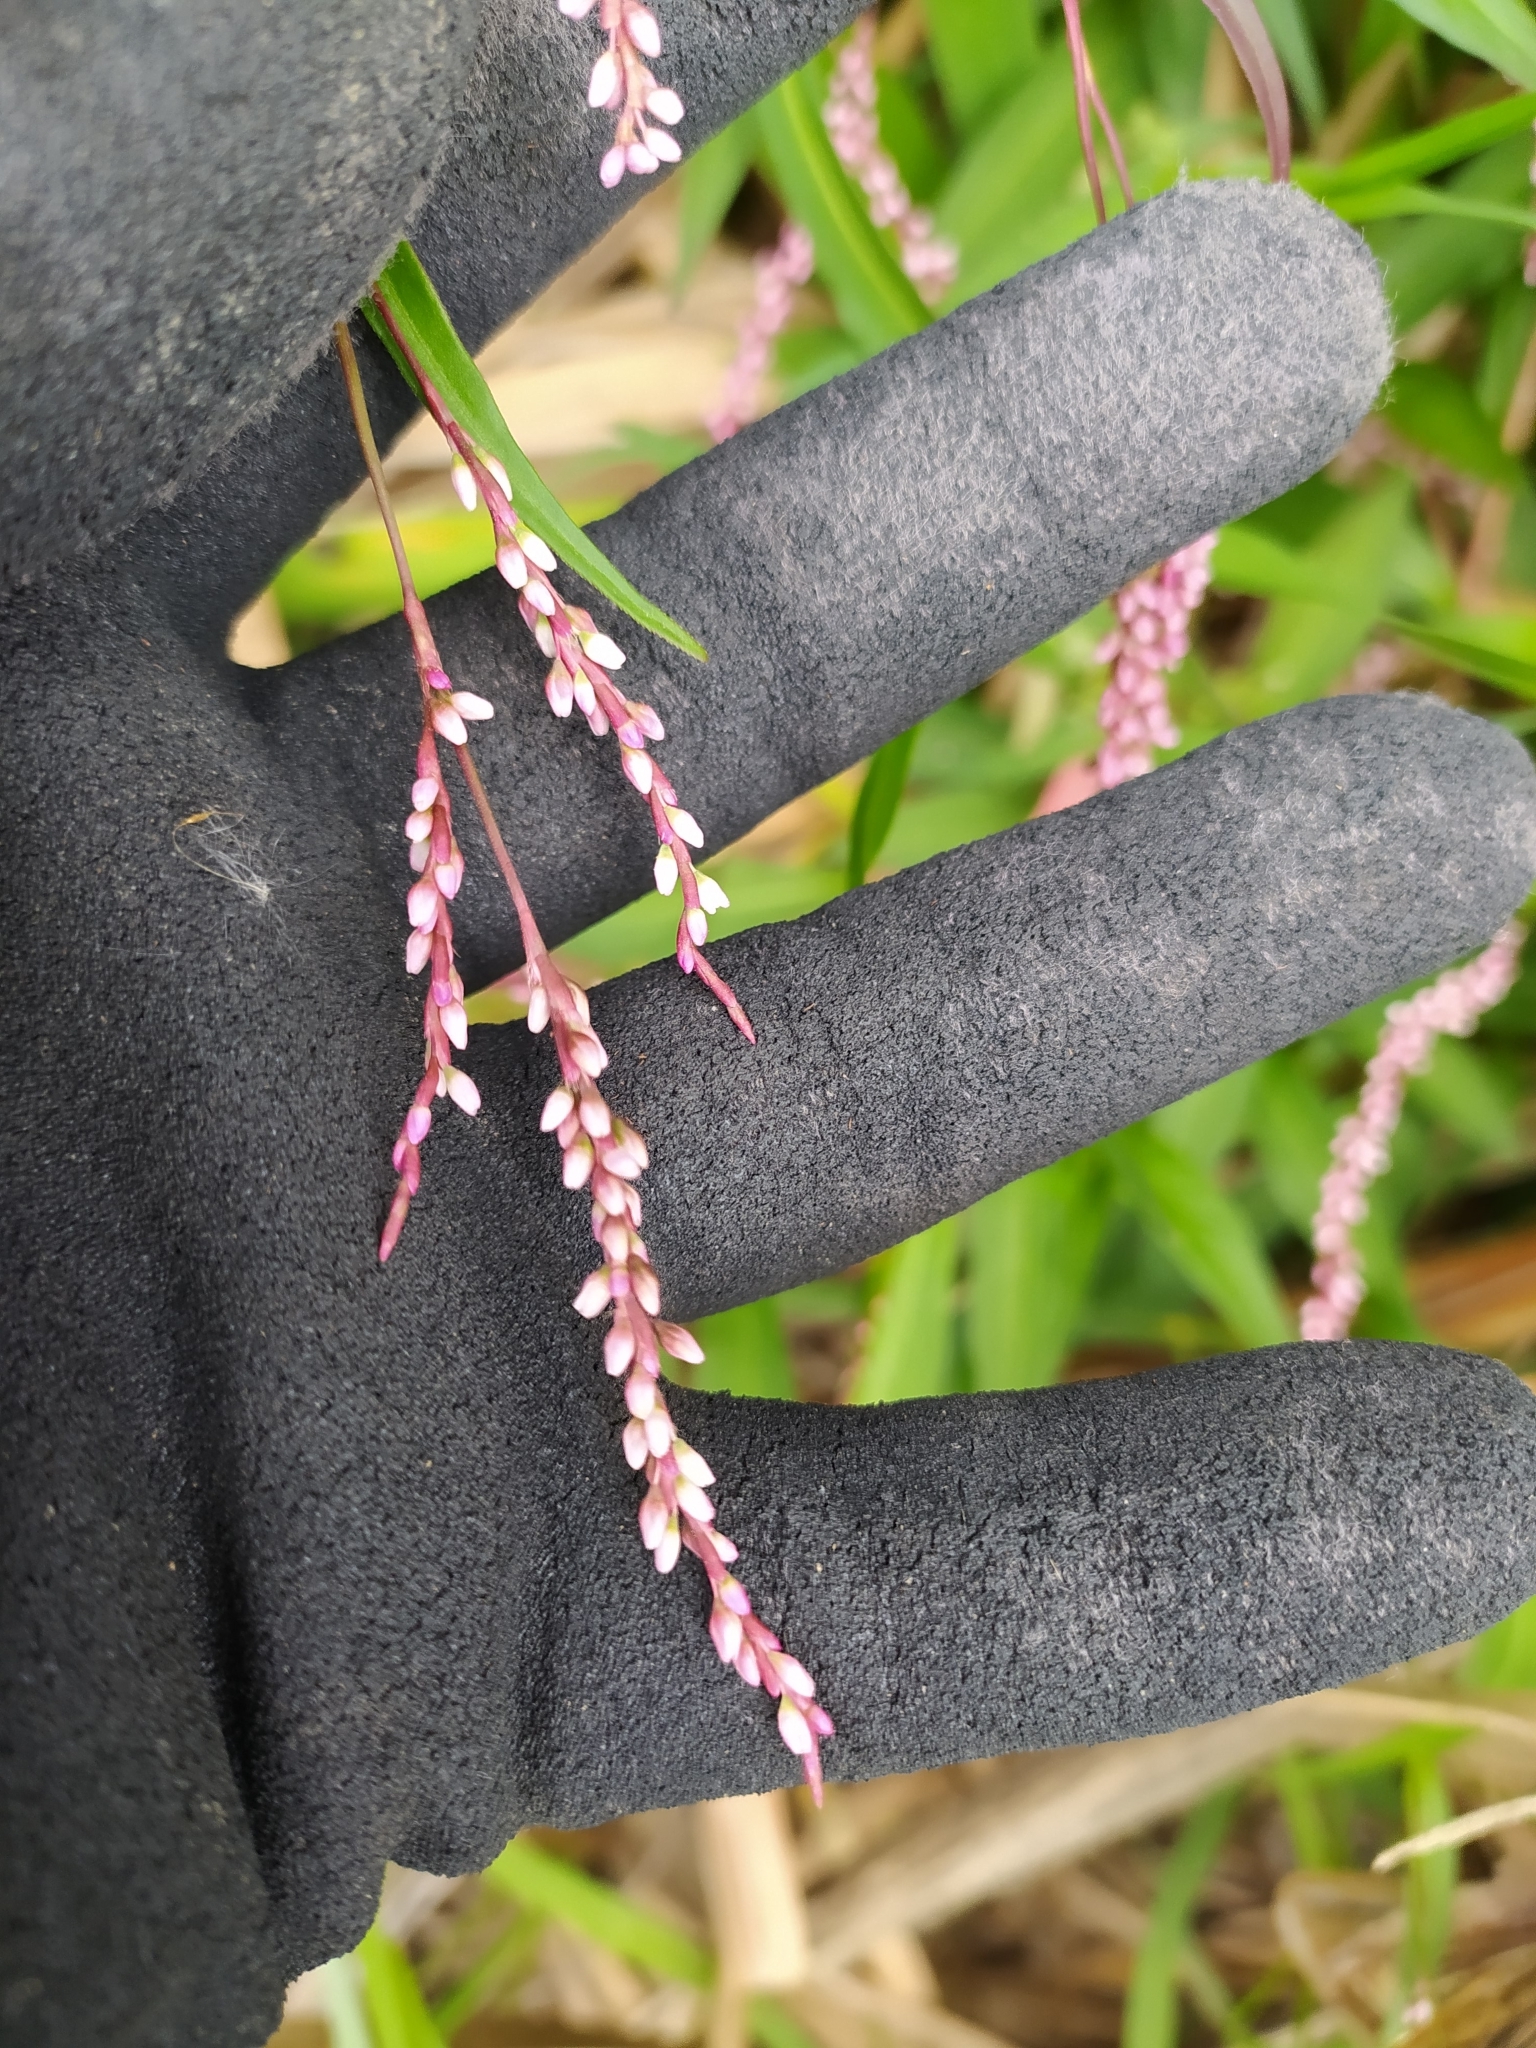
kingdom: Plantae
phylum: Tracheophyta
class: Magnoliopsida
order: Caryophyllales
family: Polygonaceae
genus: Persicaria
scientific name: Persicaria decipiens
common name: Willow-weed
